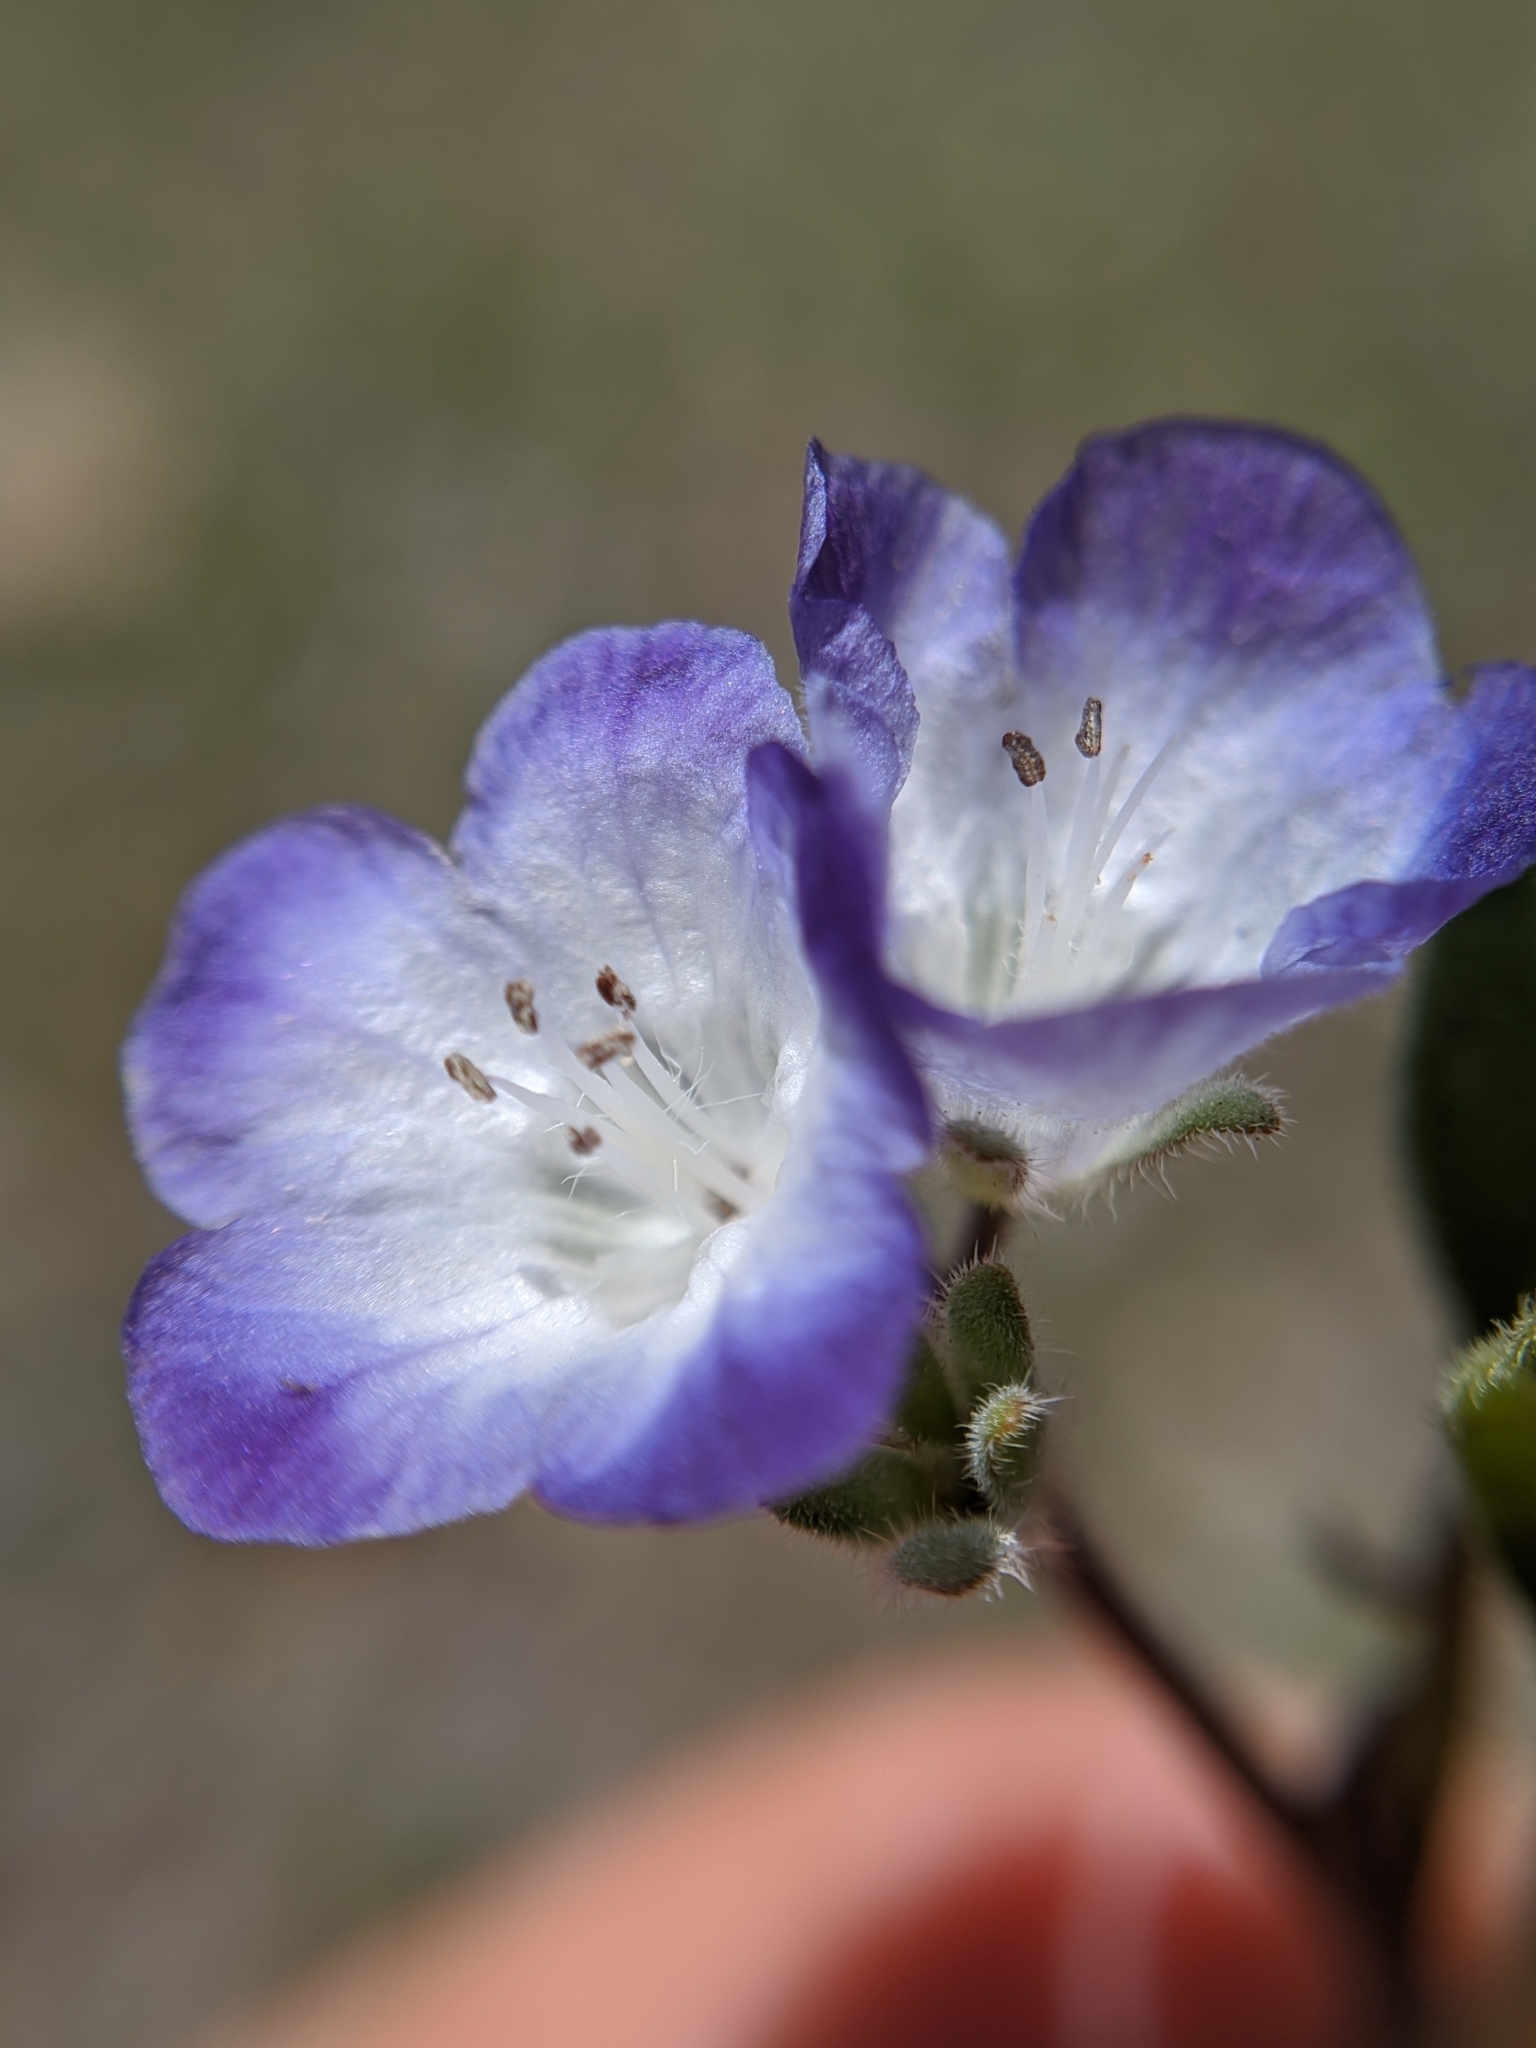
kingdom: Plantae
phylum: Tracheophyta
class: Magnoliopsida
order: Boraginales
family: Hydrophyllaceae
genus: Phacelia
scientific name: Phacelia davidsonii
